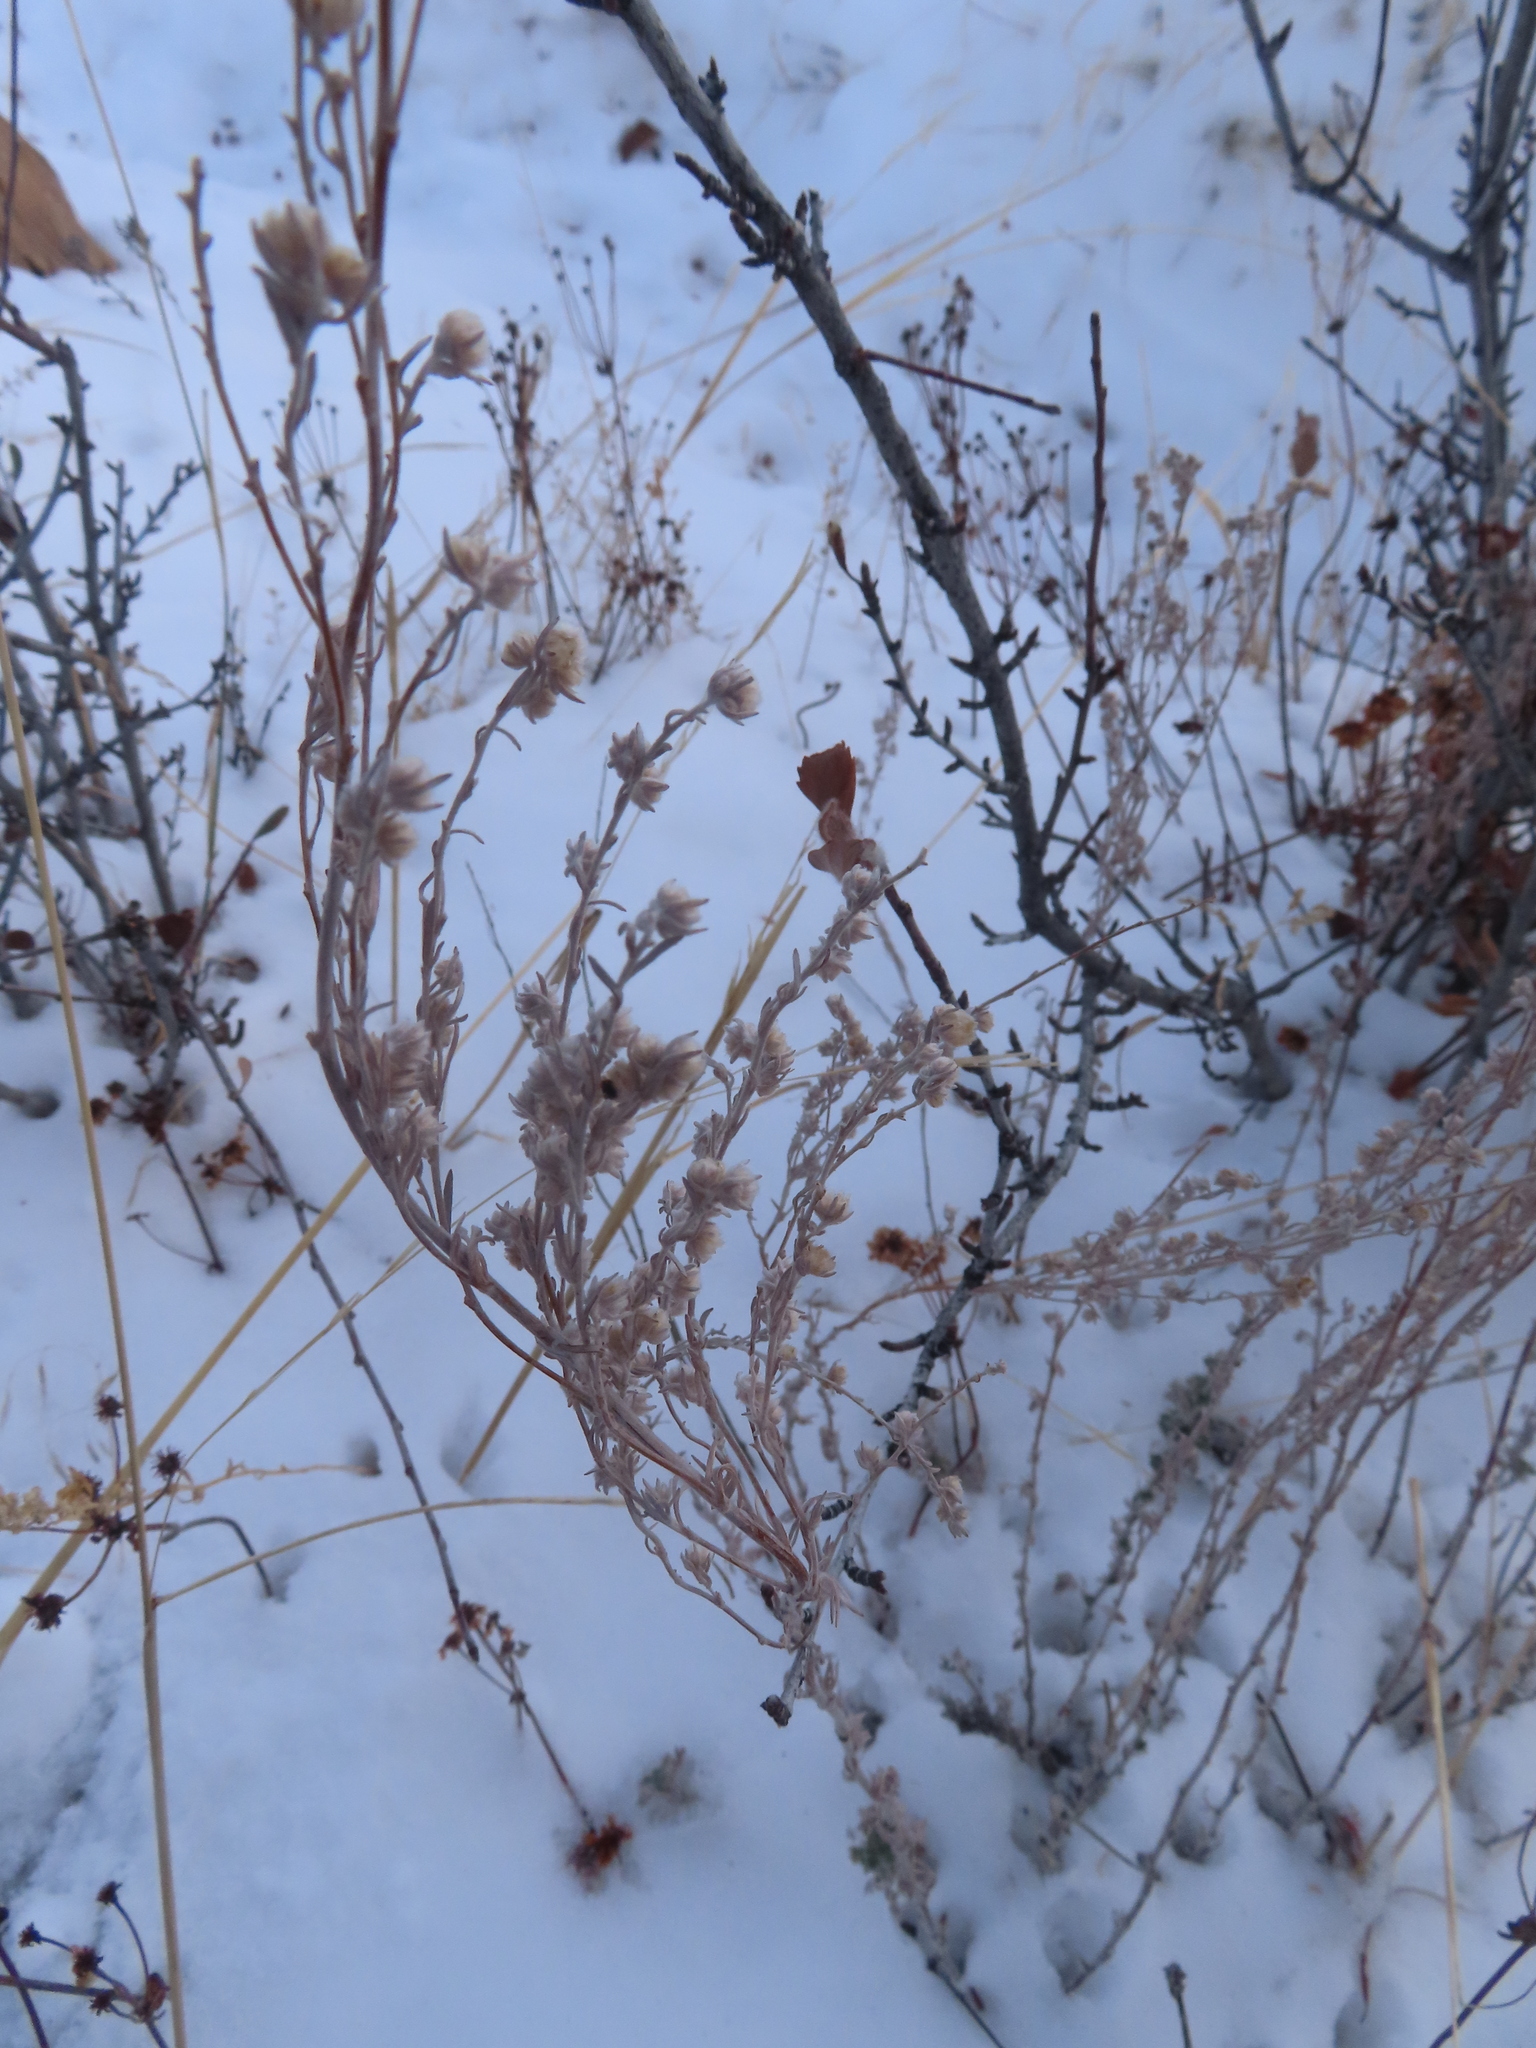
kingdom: Plantae
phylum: Tracheophyta
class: Magnoliopsida
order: Asterales
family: Asteraceae
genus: Pseudognaphalium
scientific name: Pseudognaphalium canescens
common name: Wright's rabbit-tobacco
